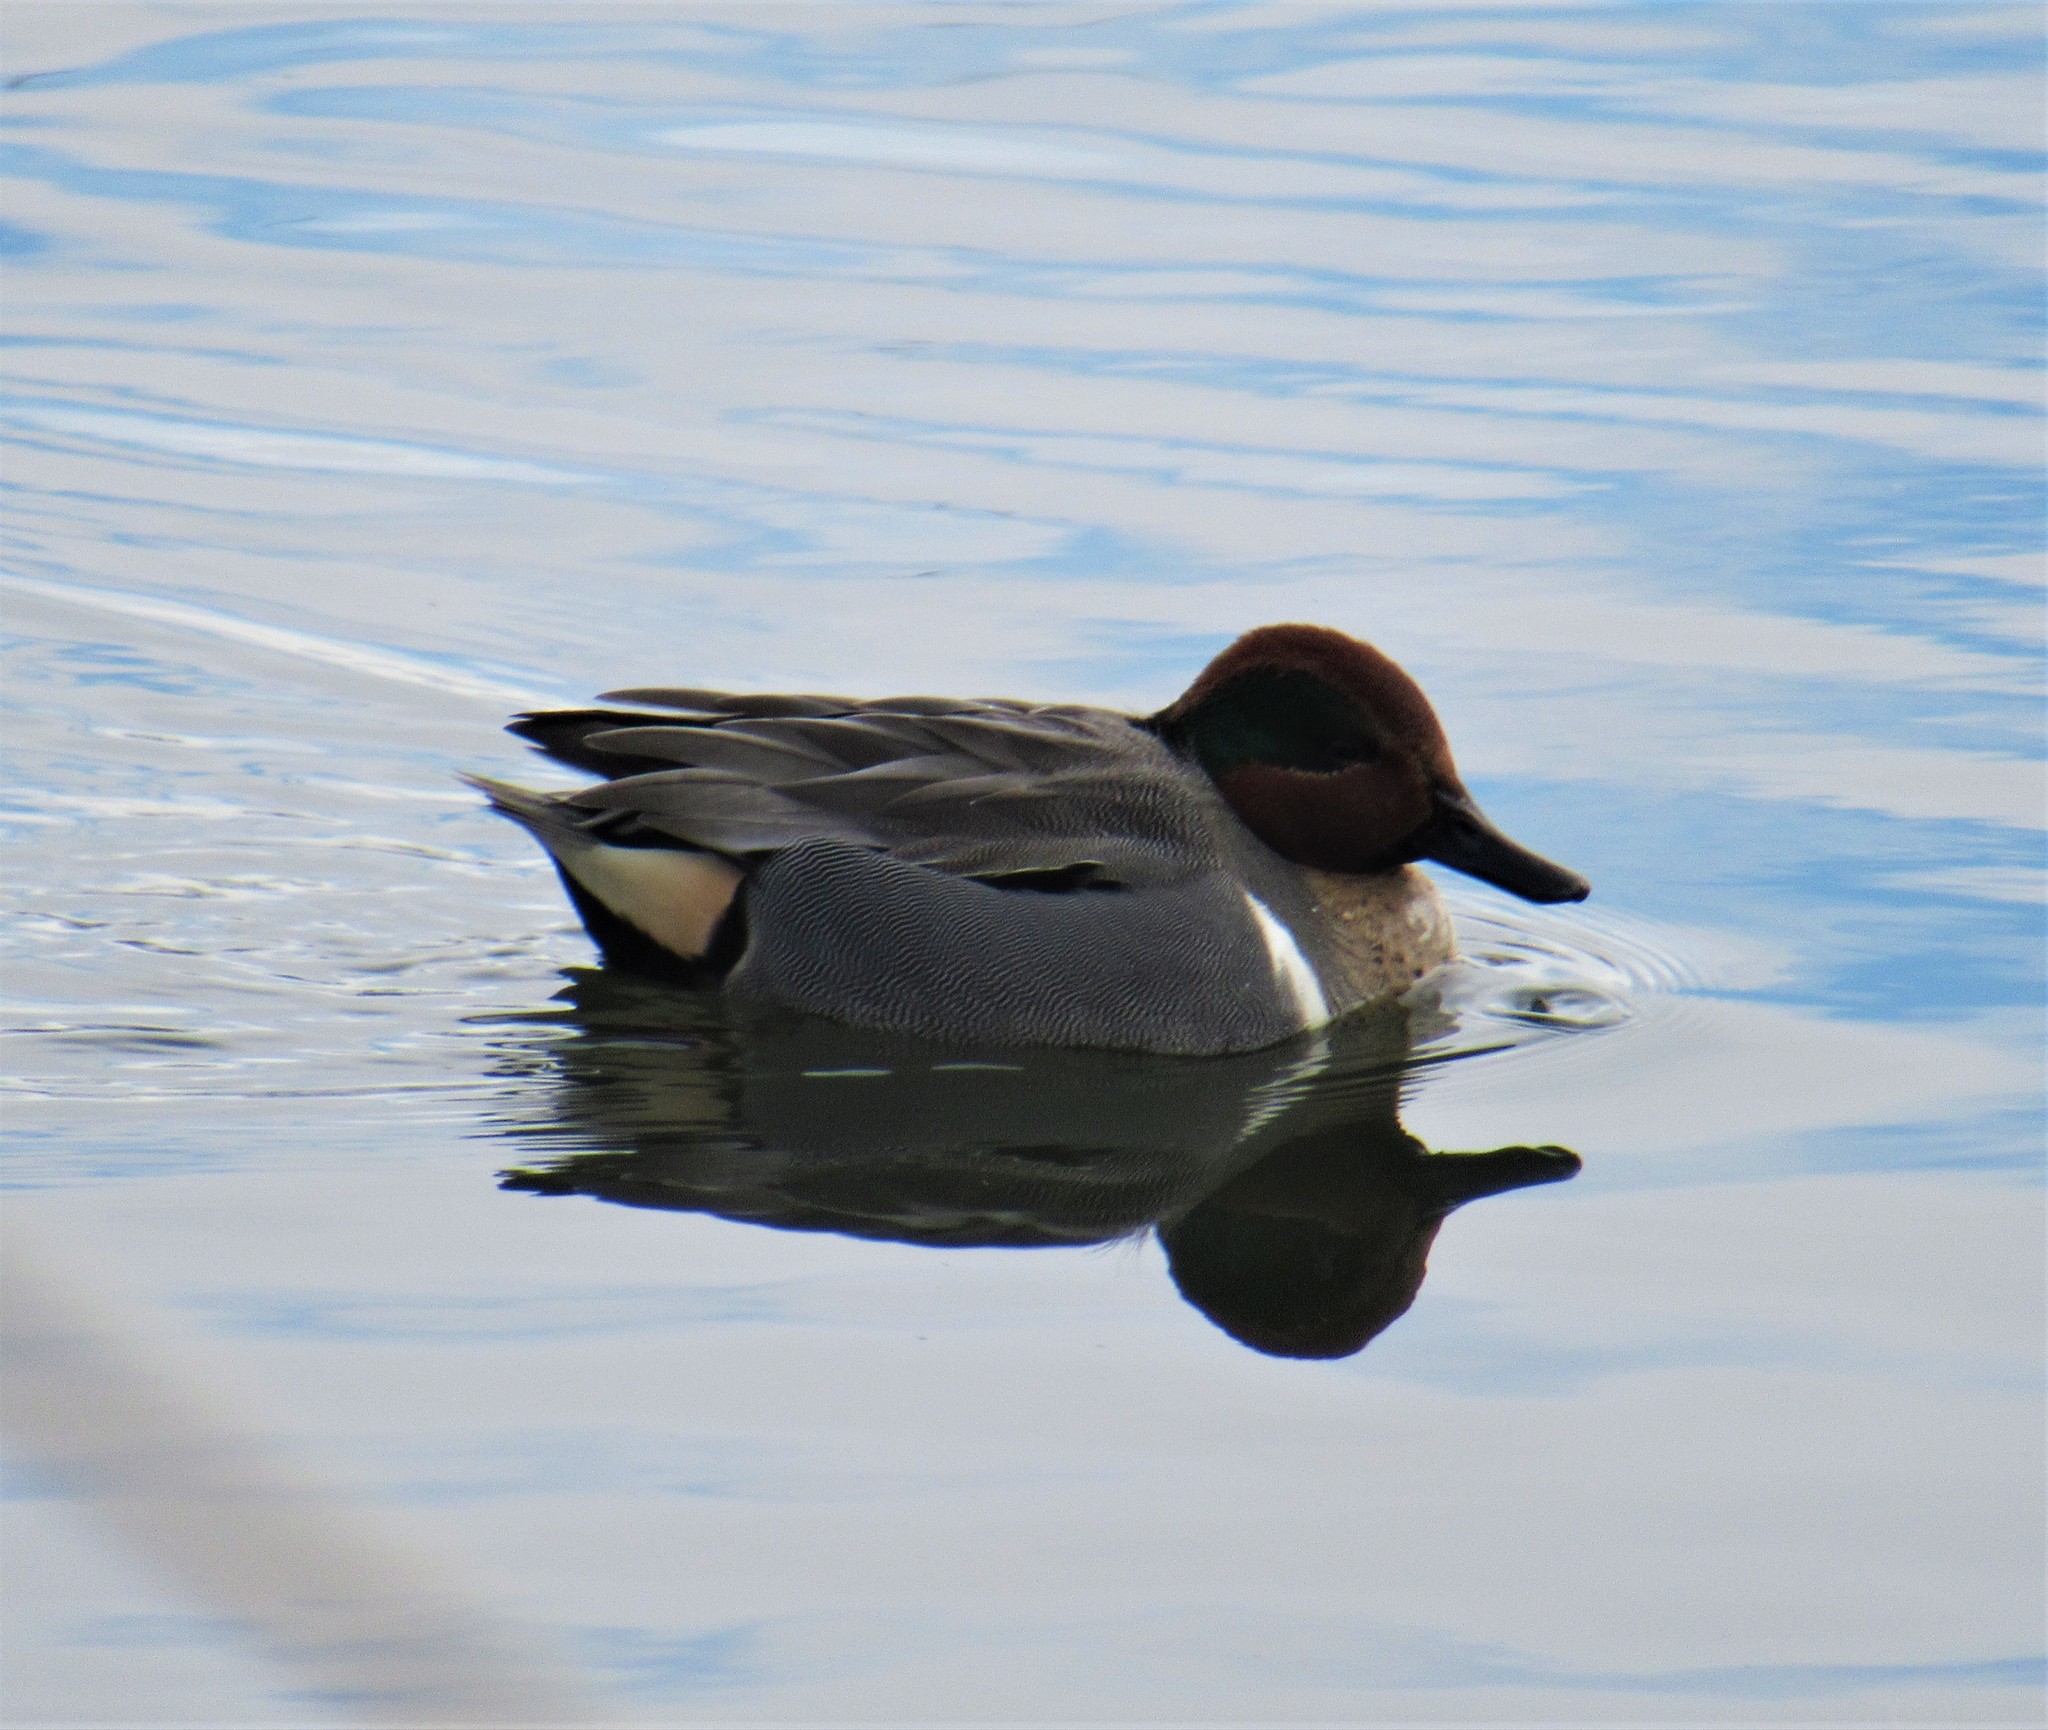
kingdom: Animalia
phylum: Chordata
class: Aves
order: Anseriformes
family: Anatidae
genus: Anas
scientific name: Anas crecca
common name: Eurasian teal
